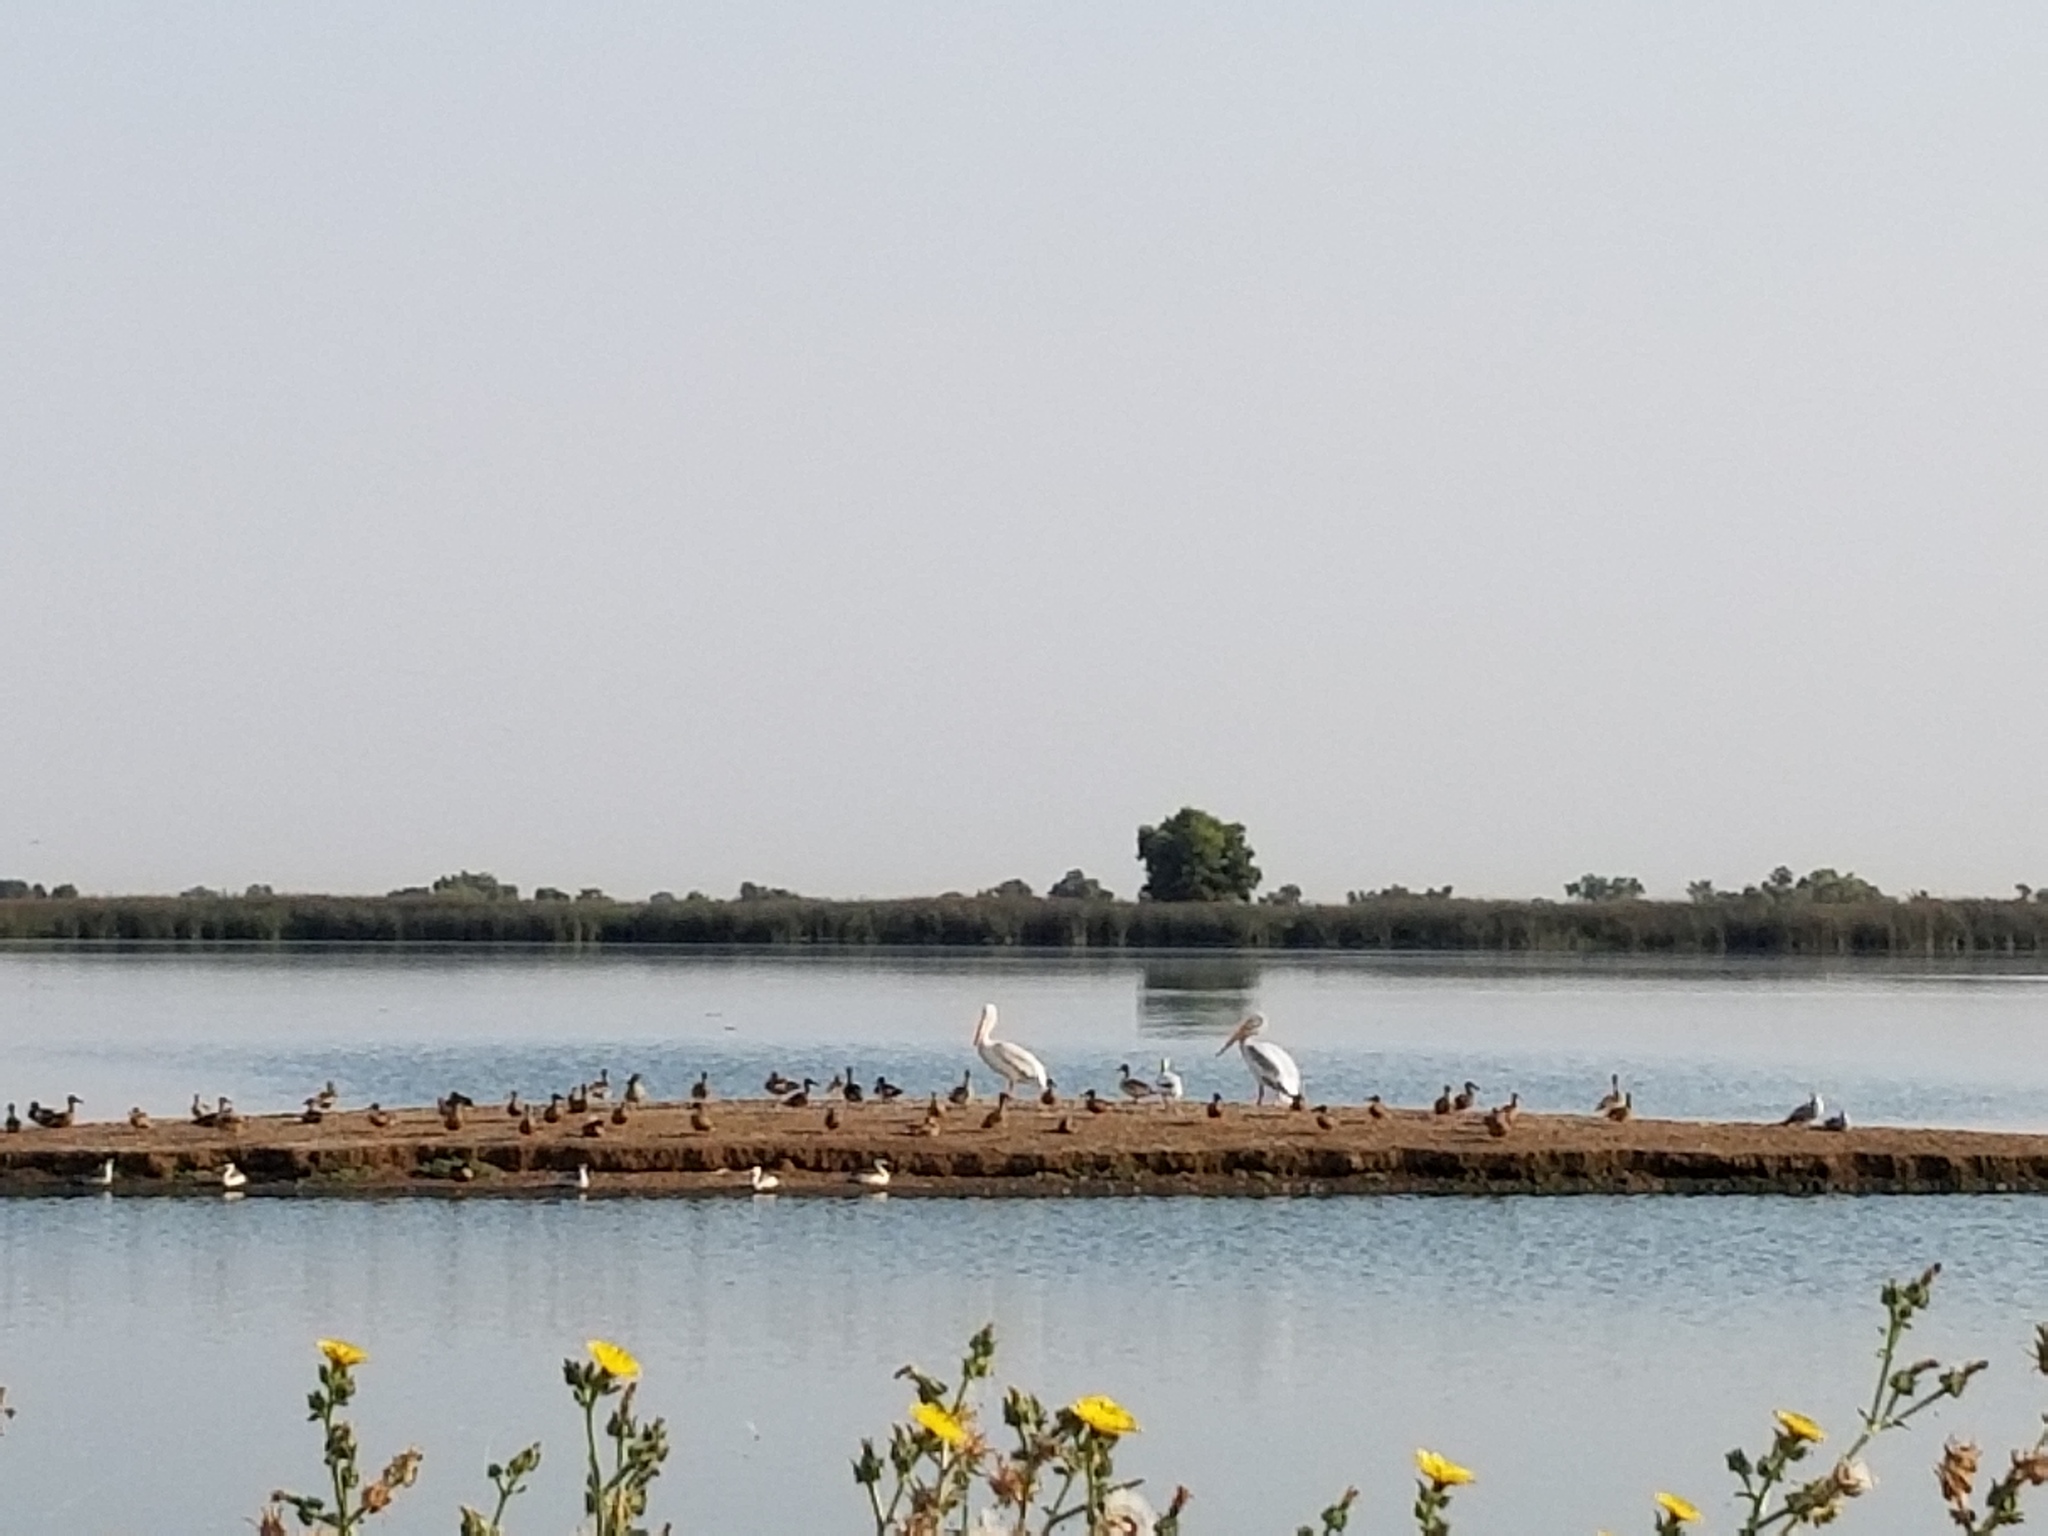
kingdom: Animalia
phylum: Chordata
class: Aves
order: Pelecaniformes
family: Pelecanidae
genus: Pelecanus
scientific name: Pelecanus erythrorhynchos
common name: American white pelican
